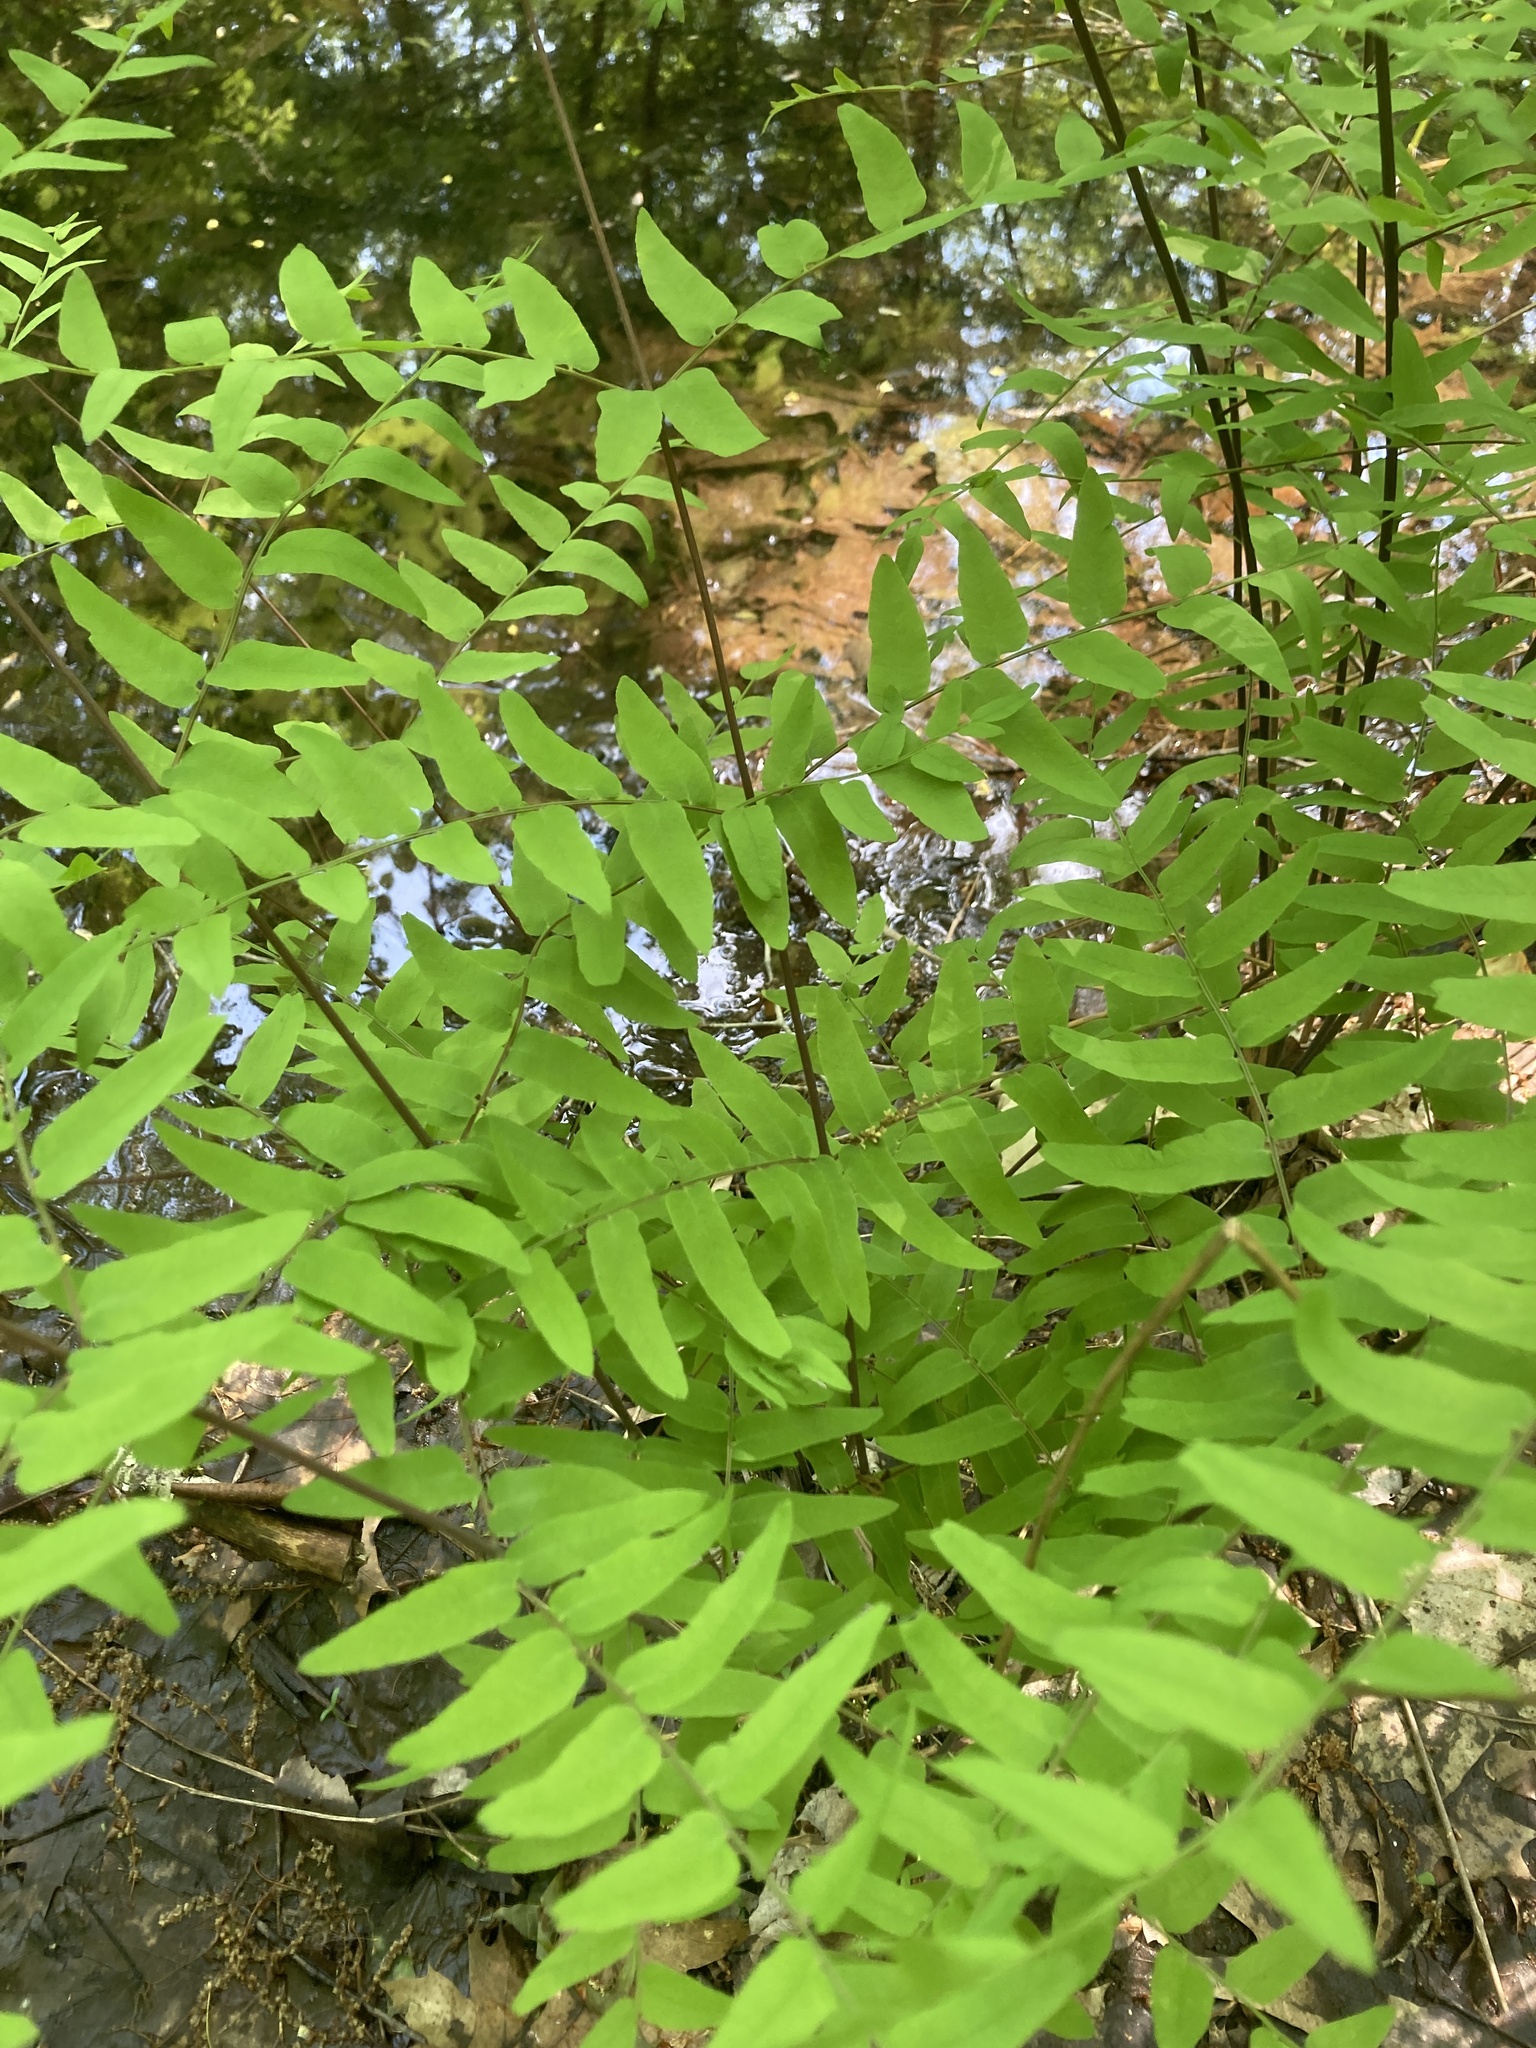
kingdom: Plantae
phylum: Tracheophyta
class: Polypodiopsida
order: Osmundales
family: Osmundaceae
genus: Osmunda
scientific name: Osmunda spectabilis
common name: American royal fern
